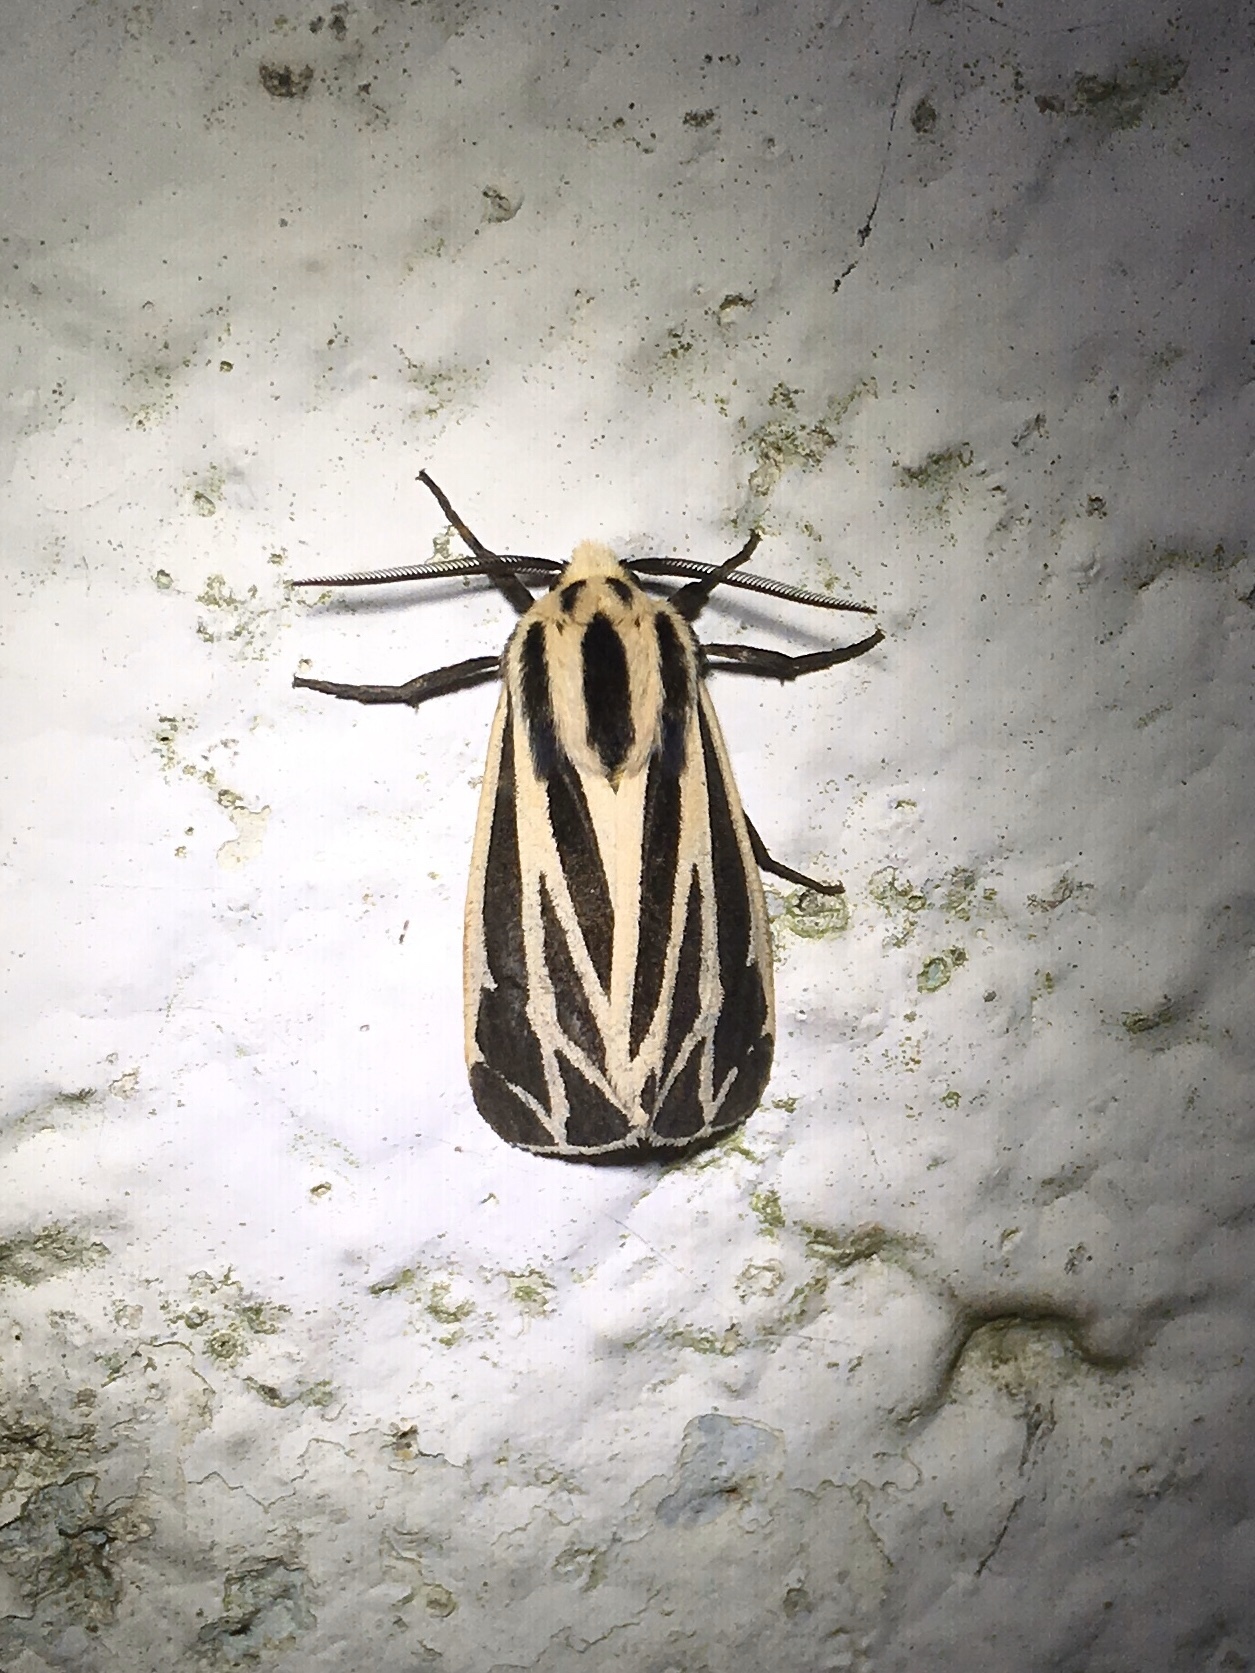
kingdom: Animalia
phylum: Arthropoda
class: Insecta
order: Lepidoptera
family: Erebidae
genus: Apantesis
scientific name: Apantesis phalerata
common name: Harnessed tiger moth
